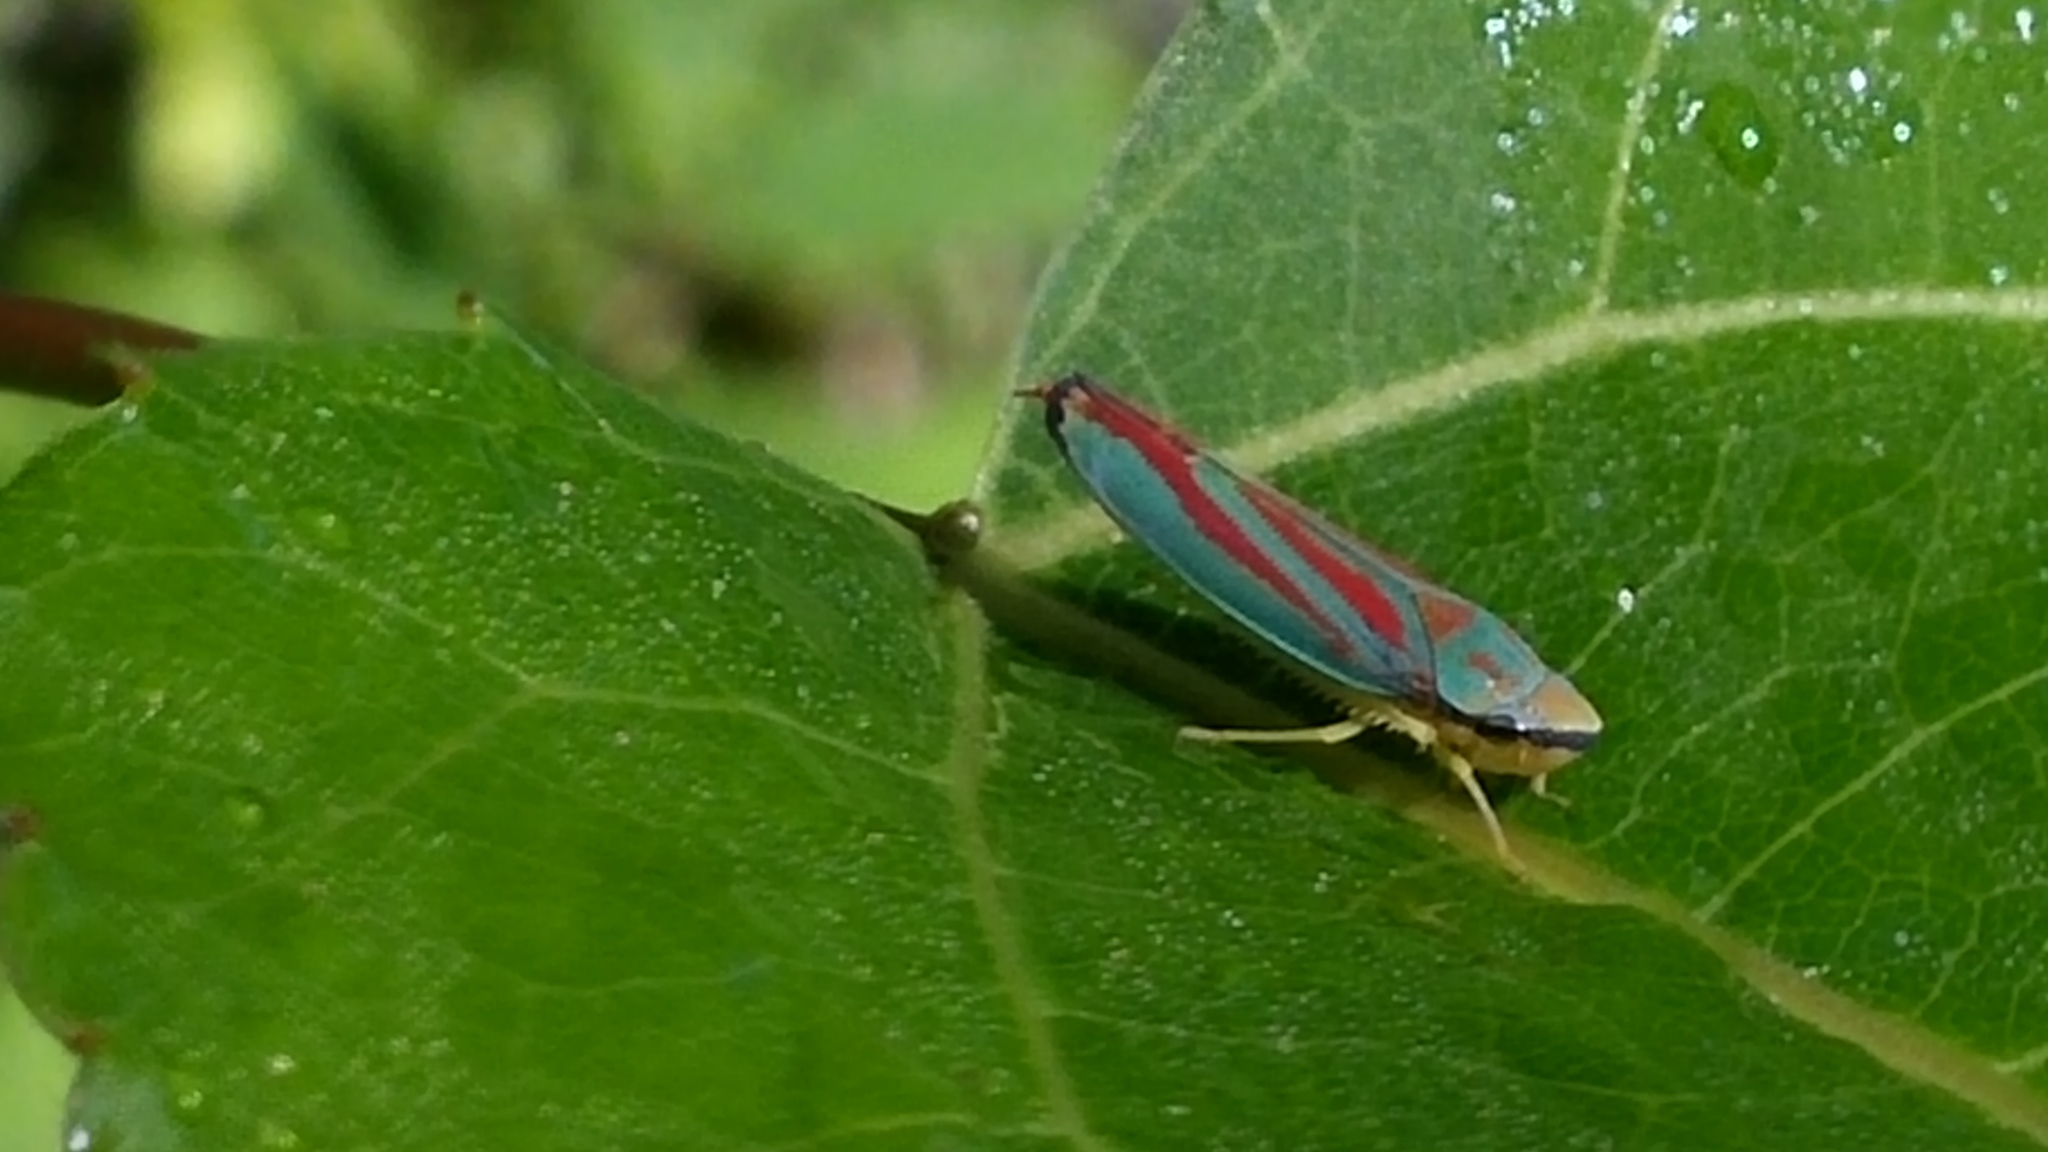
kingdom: Animalia
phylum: Arthropoda
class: Insecta
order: Hemiptera
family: Cicadellidae
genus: Graphocephala
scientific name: Graphocephala coccinea
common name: Candy-striped leafhopper
